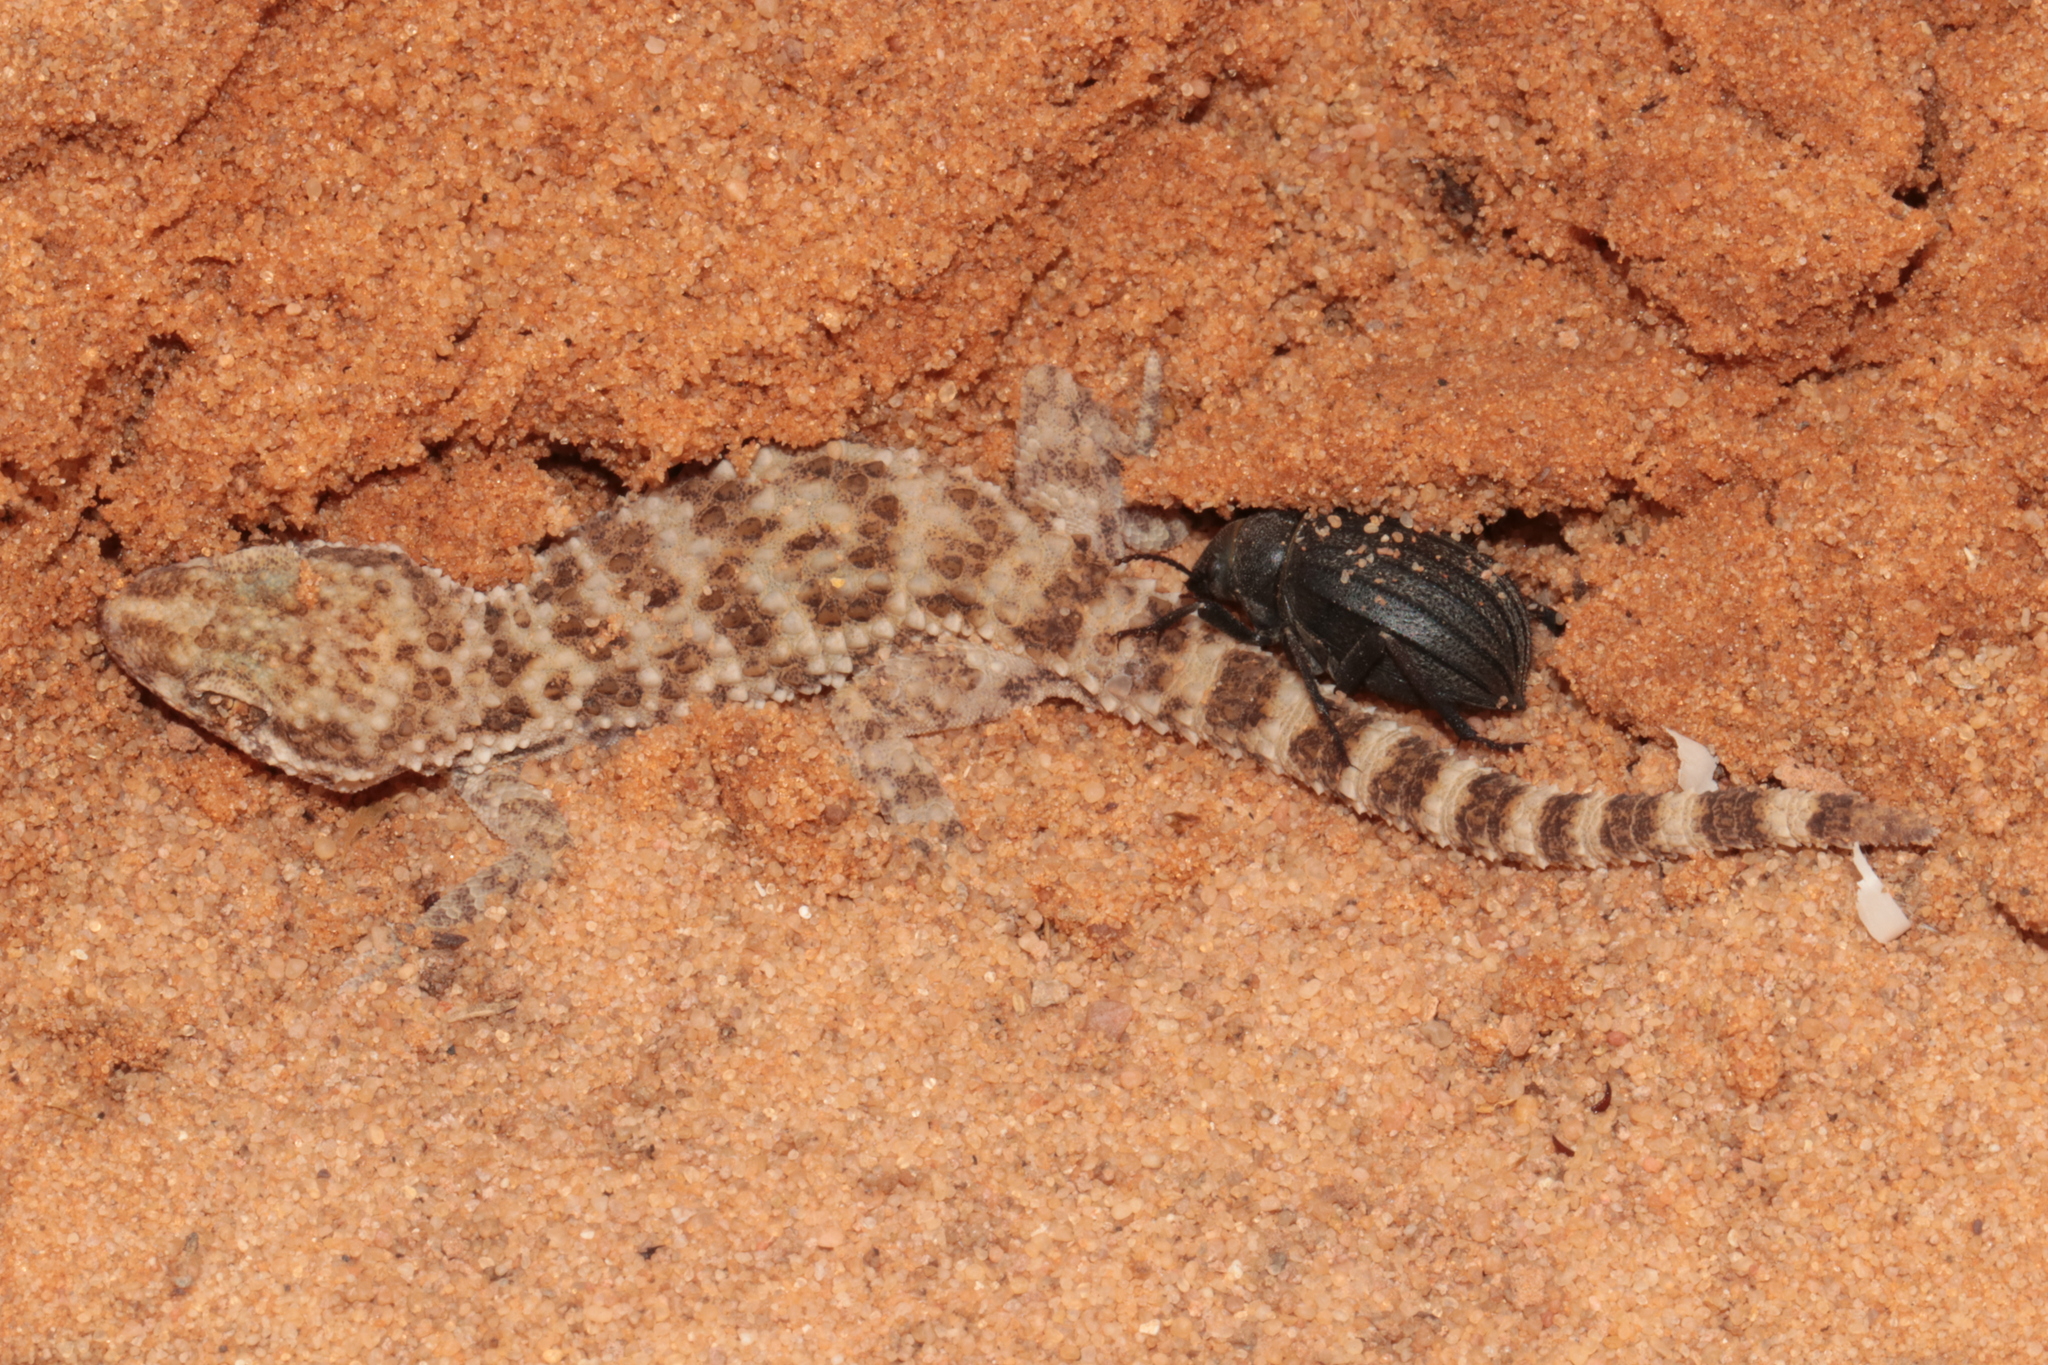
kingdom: Animalia
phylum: Chordata
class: Squamata
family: Gekkonidae
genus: Bunopus
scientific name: Bunopus tuberculatus
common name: Southern tuberculated gecko
